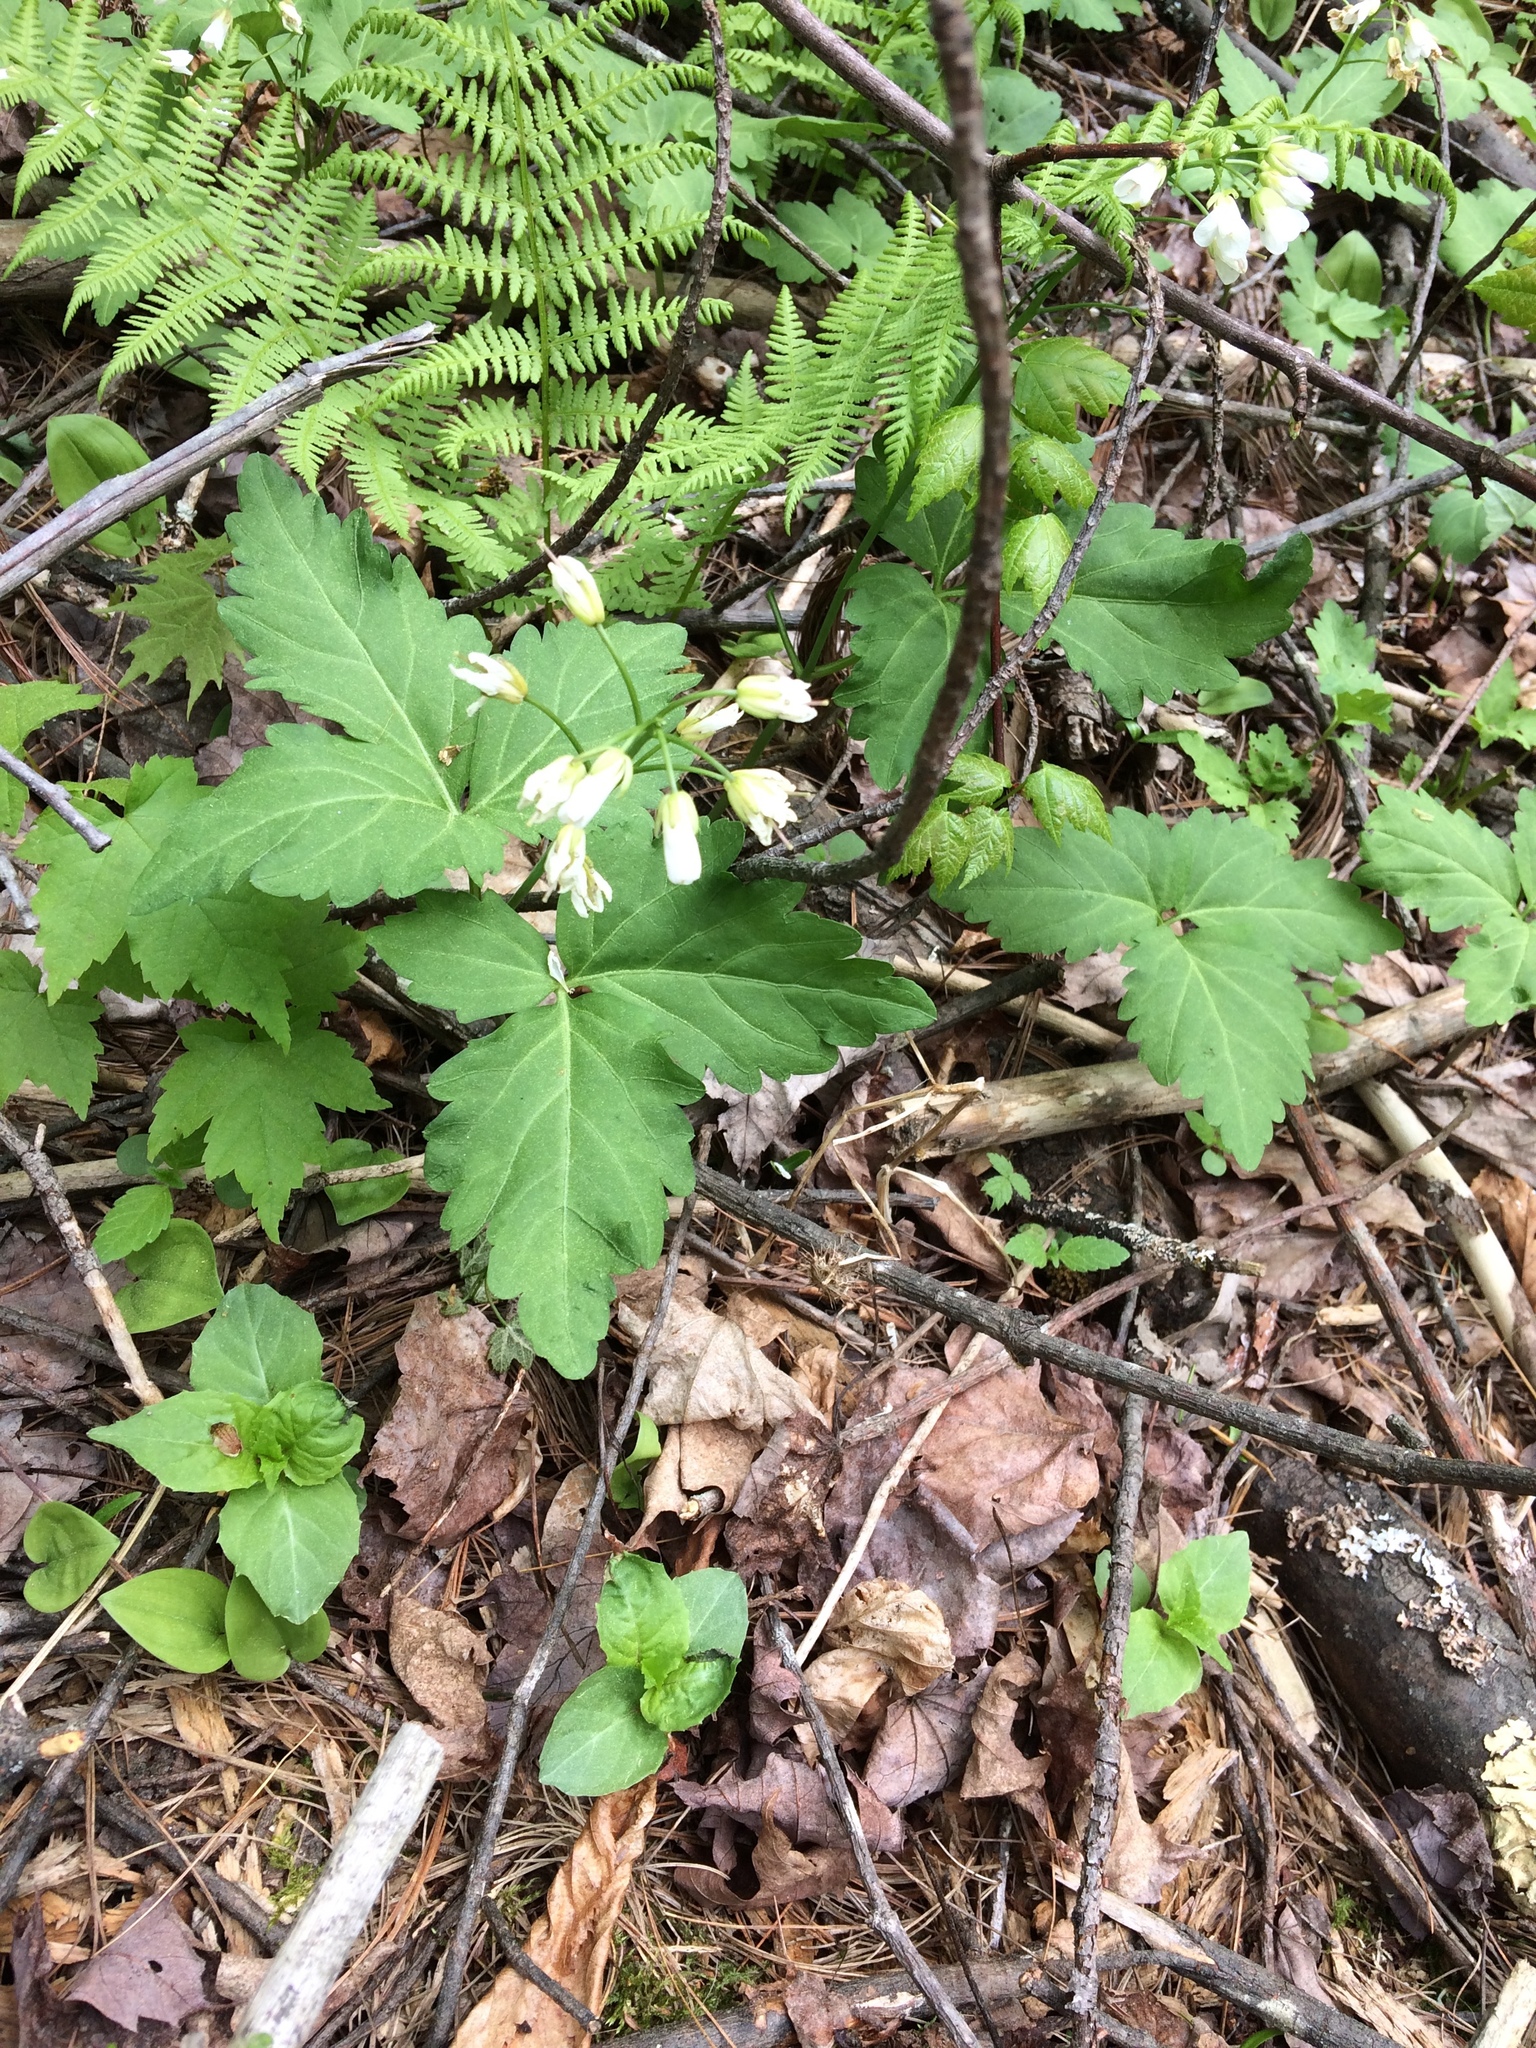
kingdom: Plantae
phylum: Tracheophyta
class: Magnoliopsida
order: Brassicales
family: Brassicaceae
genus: Cardamine
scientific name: Cardamine diphylla
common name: Broad-leaved toothwort
